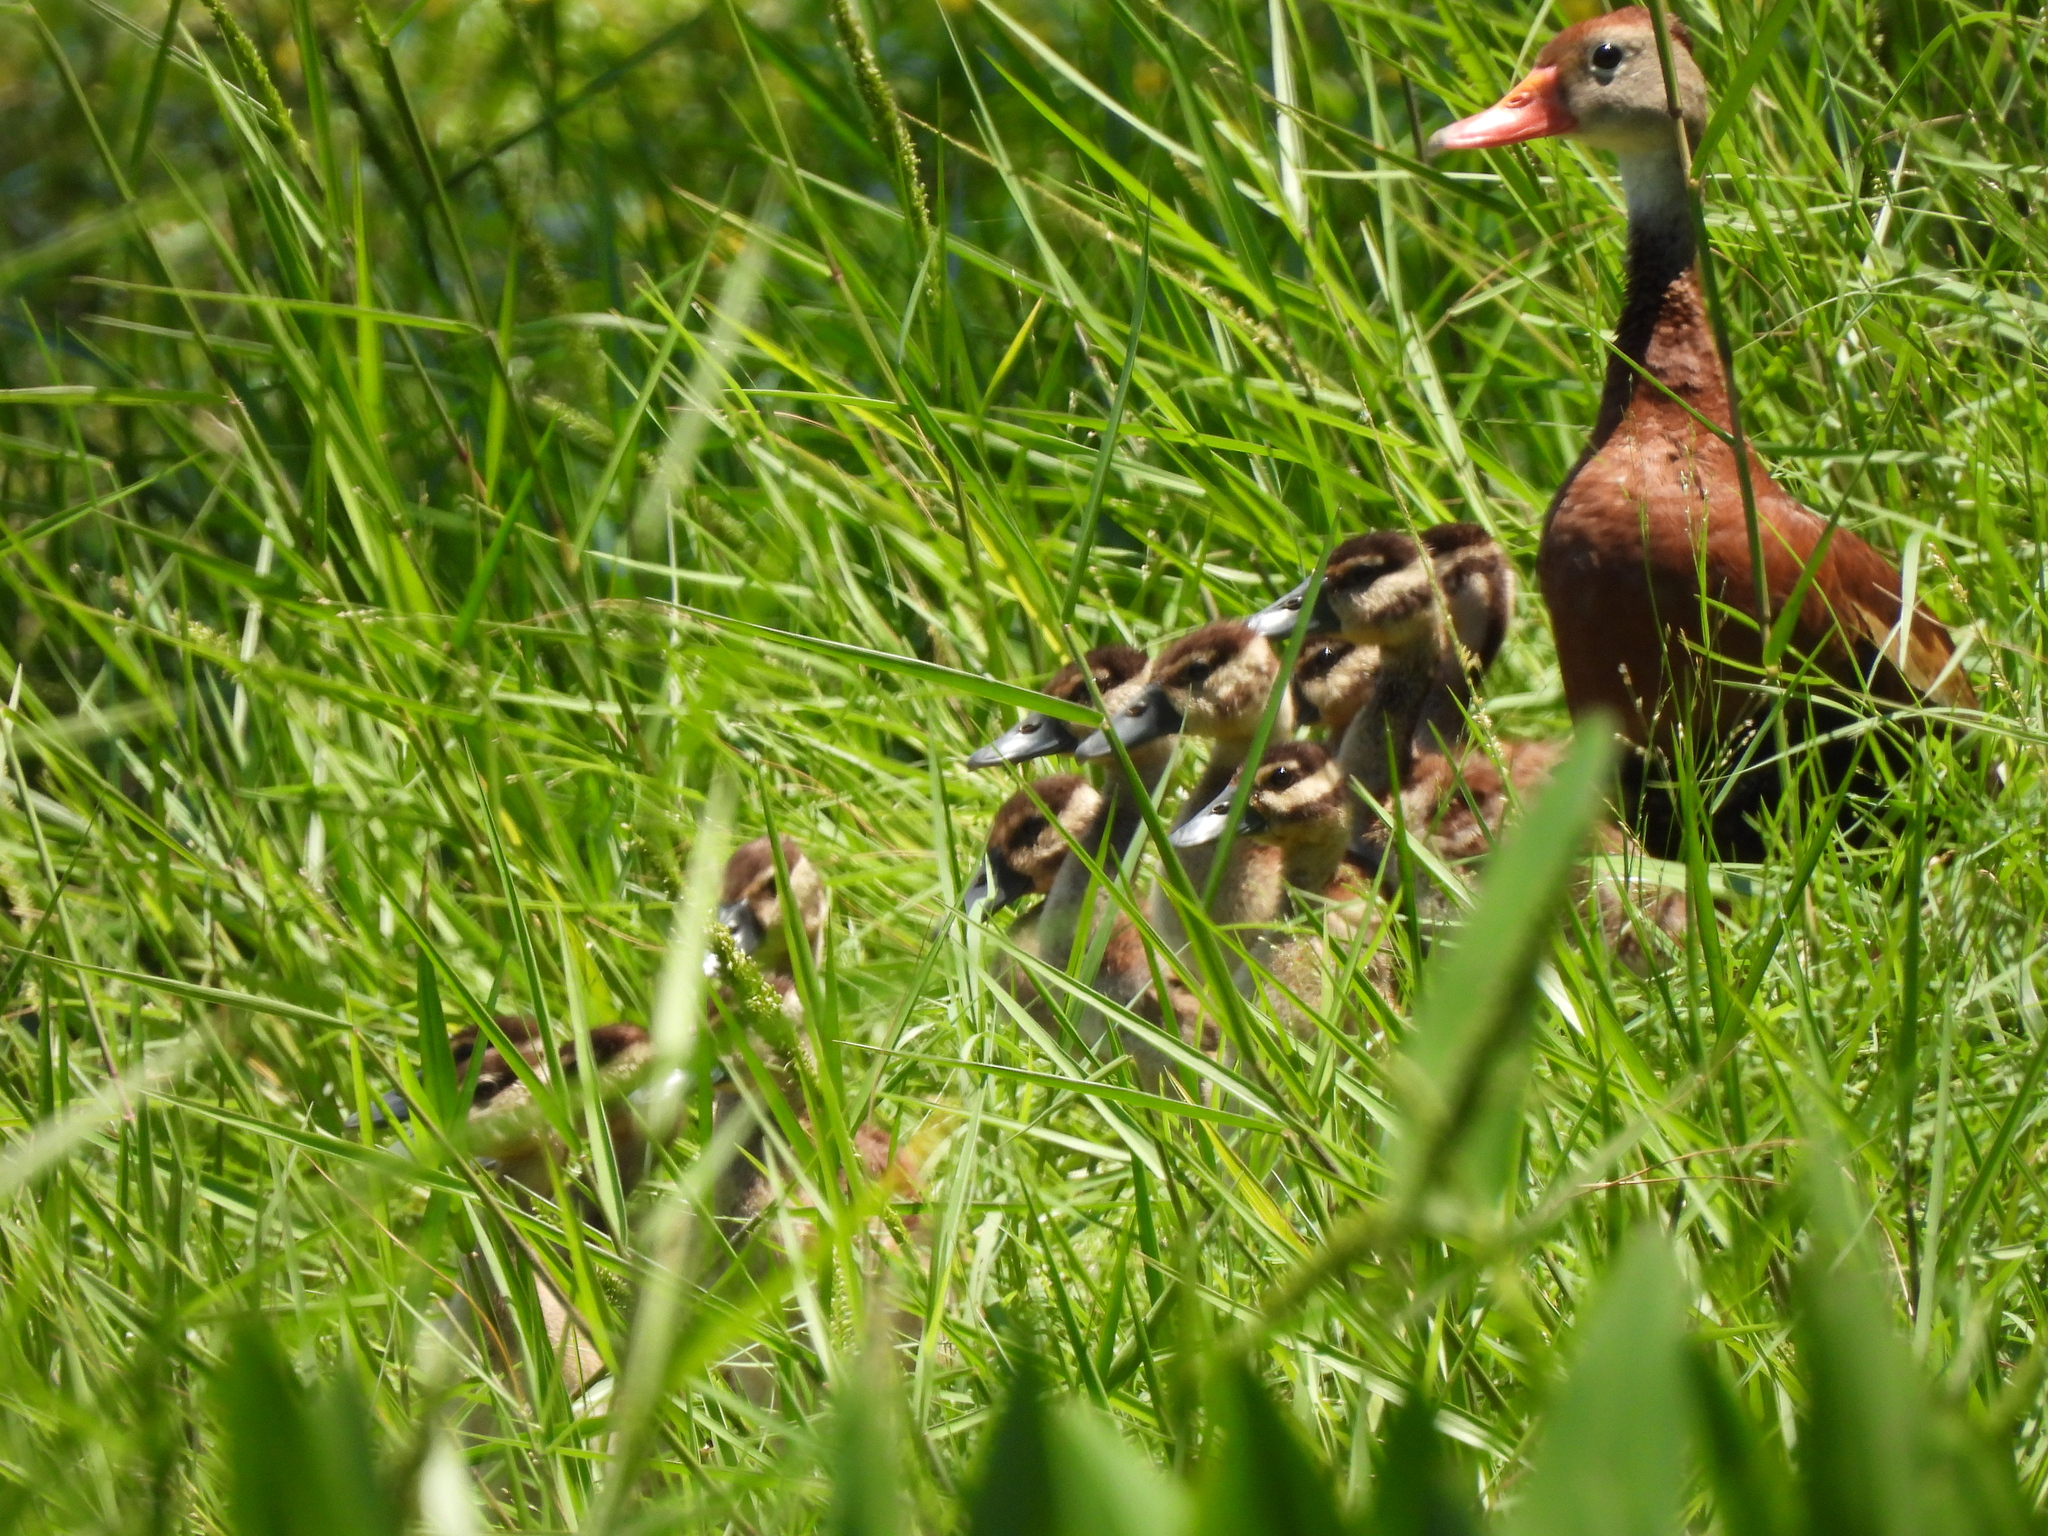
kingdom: Animalia
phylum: Chordata
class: Aves
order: Anseriformes
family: Anatidae
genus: Dendrocygna
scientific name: Dendrocygna autumnalis
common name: Black-bellied whistling duck
